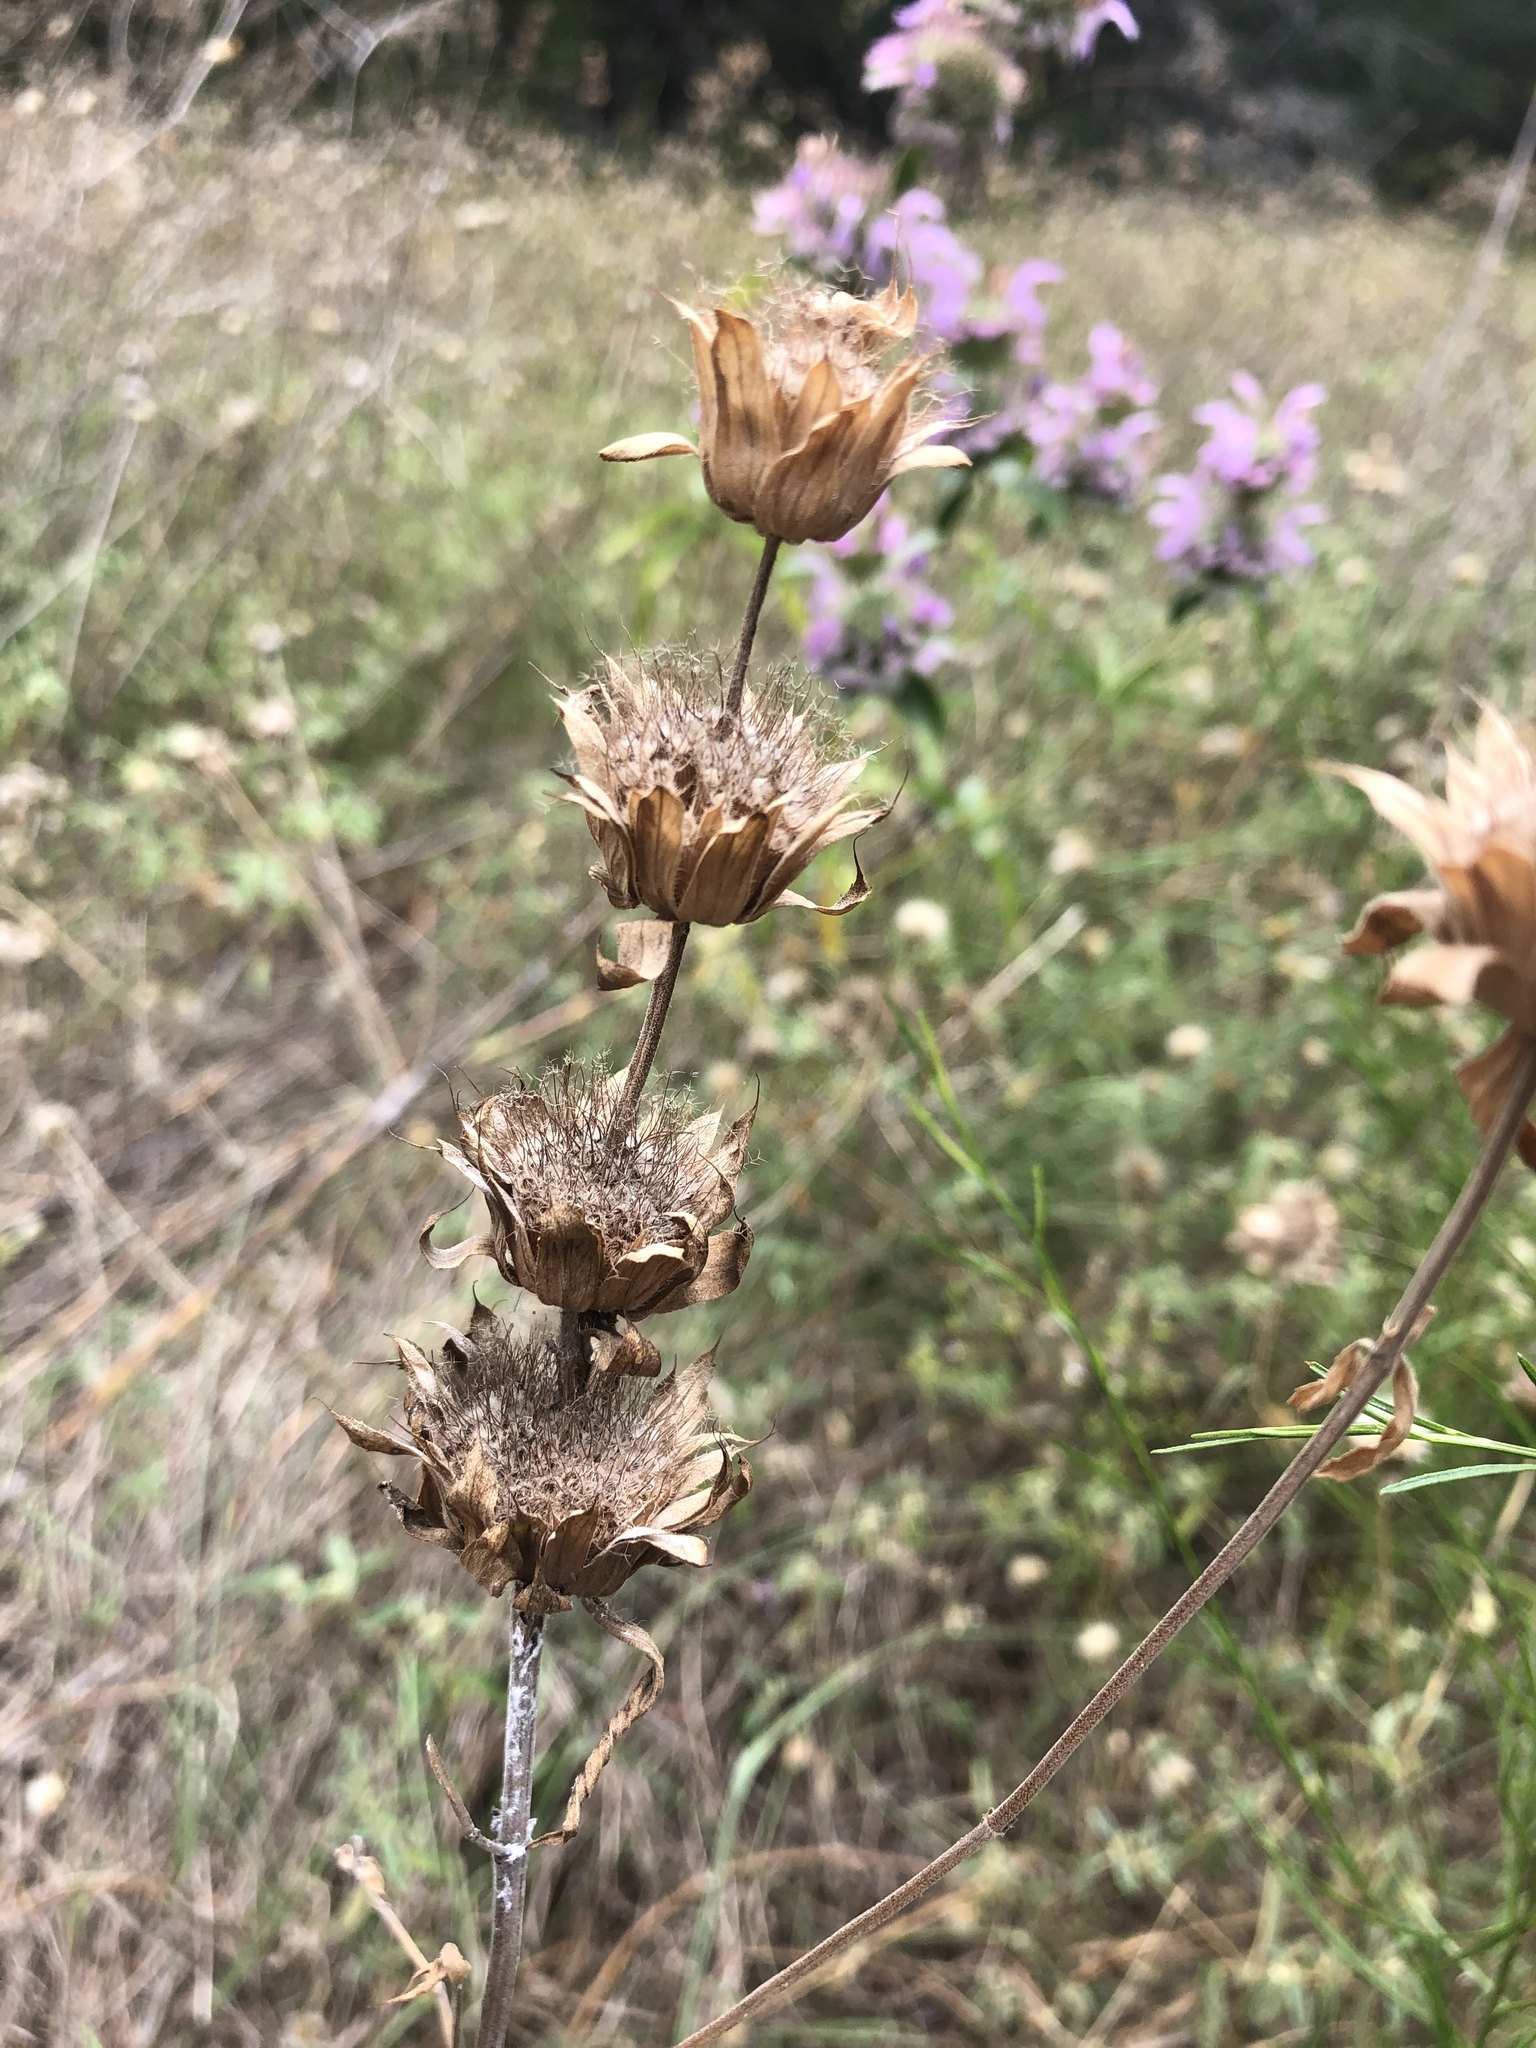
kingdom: Plantae
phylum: Tracheophyta
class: Magnoliopsida
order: Lamiales
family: Lamiaceae
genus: Monarda
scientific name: Monarda citriodora
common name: Lemon beebalm
